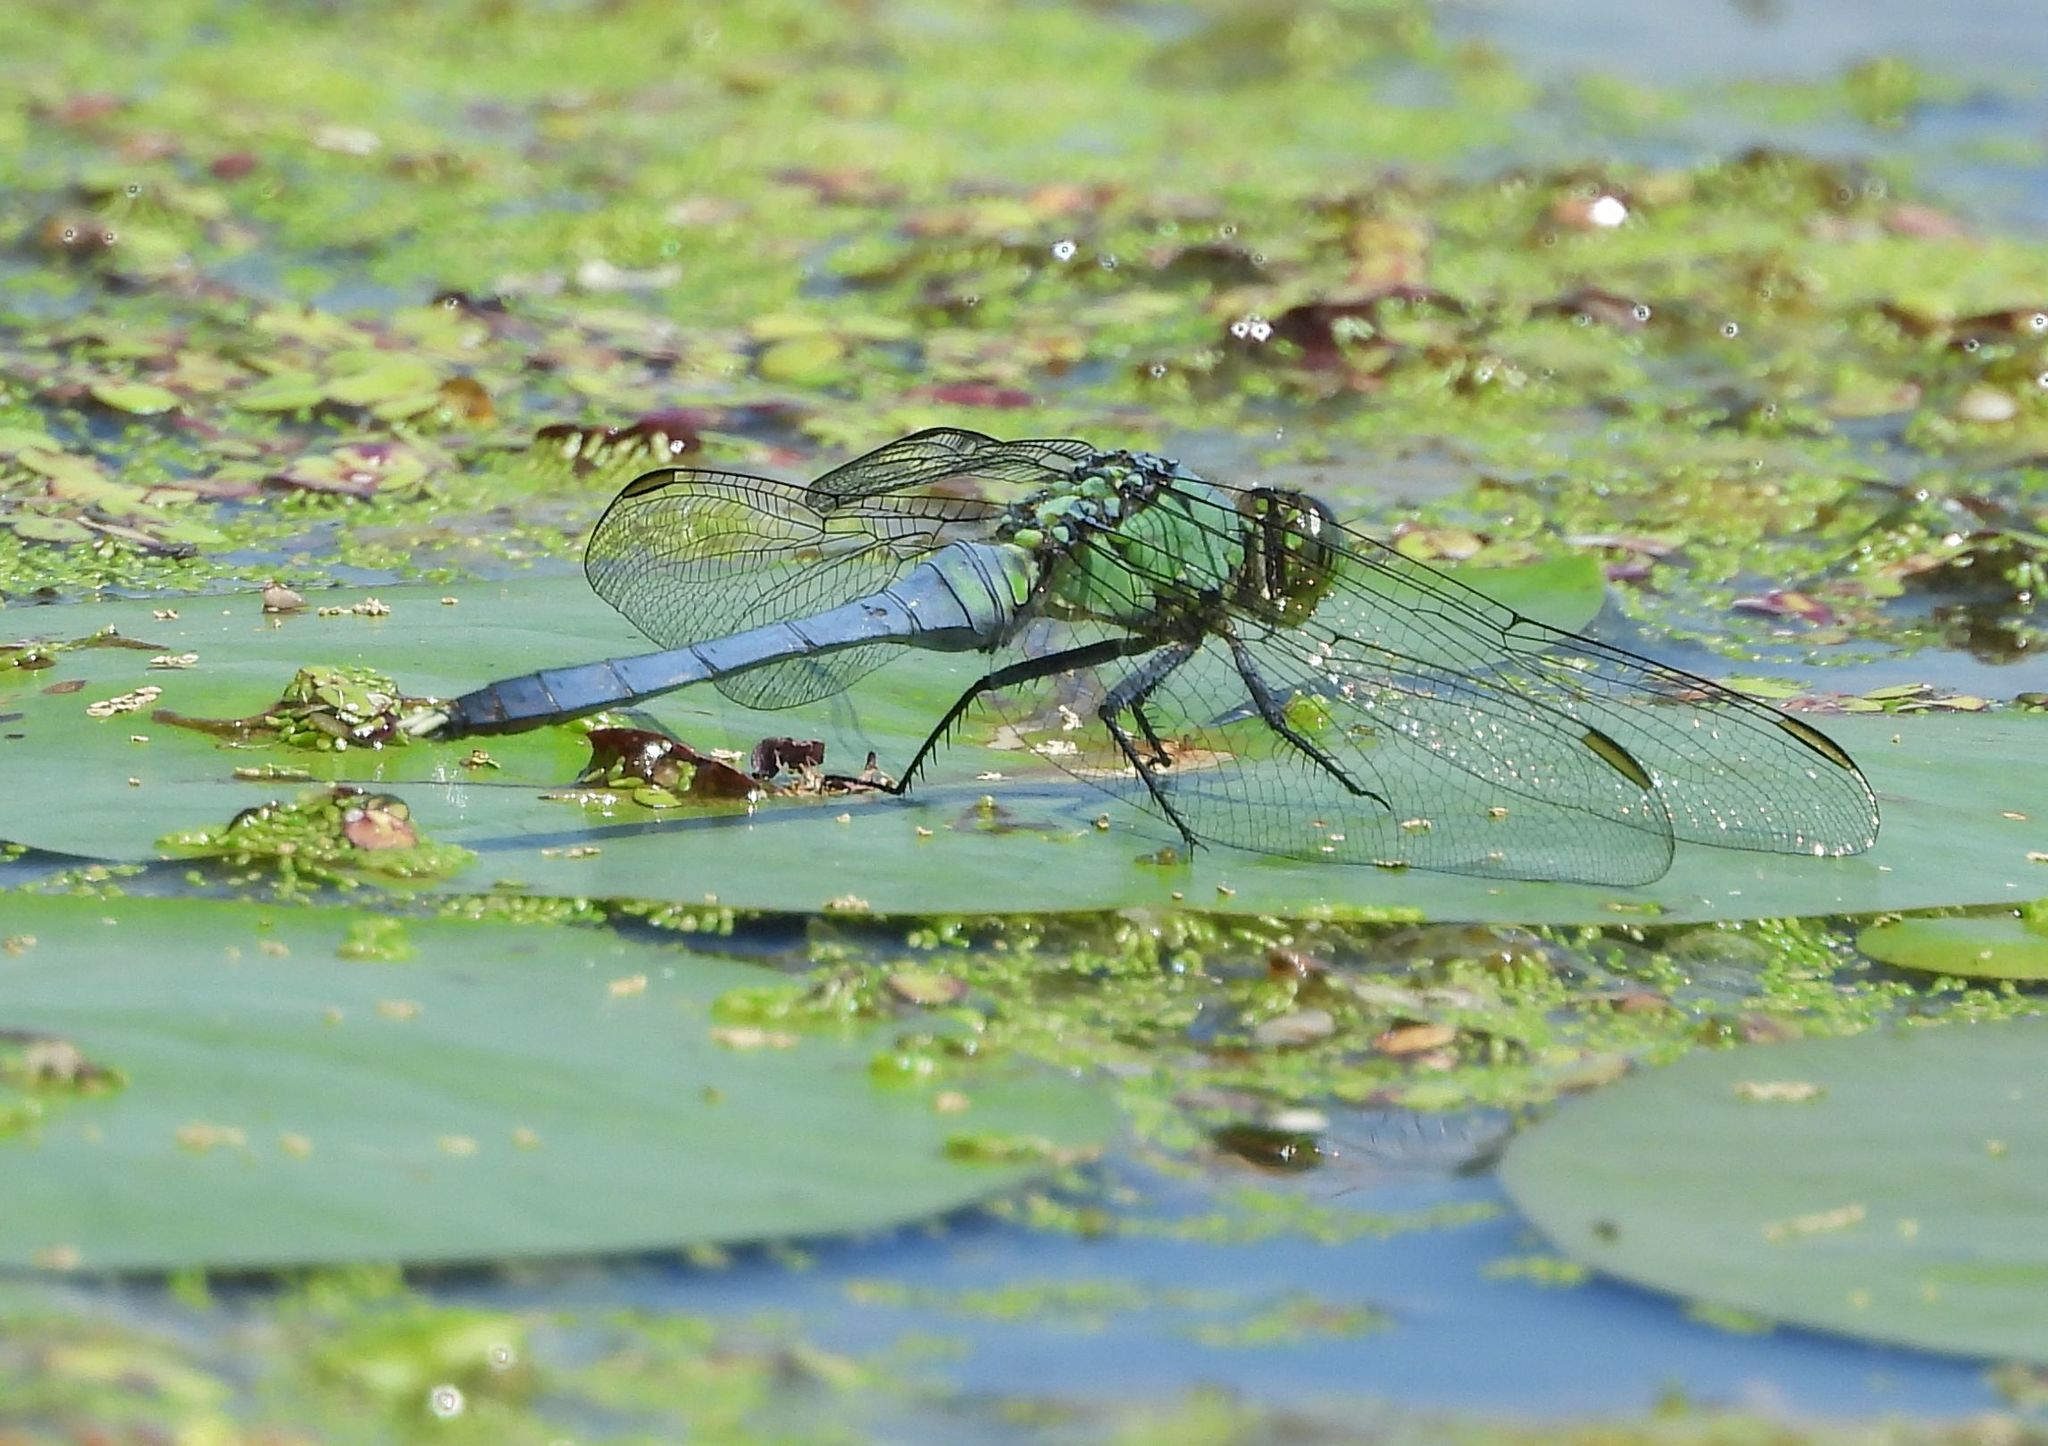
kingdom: Animalia
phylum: Arthropoda
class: Insecta
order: Odonata
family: Libellulidae
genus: Erythemis
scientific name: Erythemis simplicicollis
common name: Eastern pondhawk
